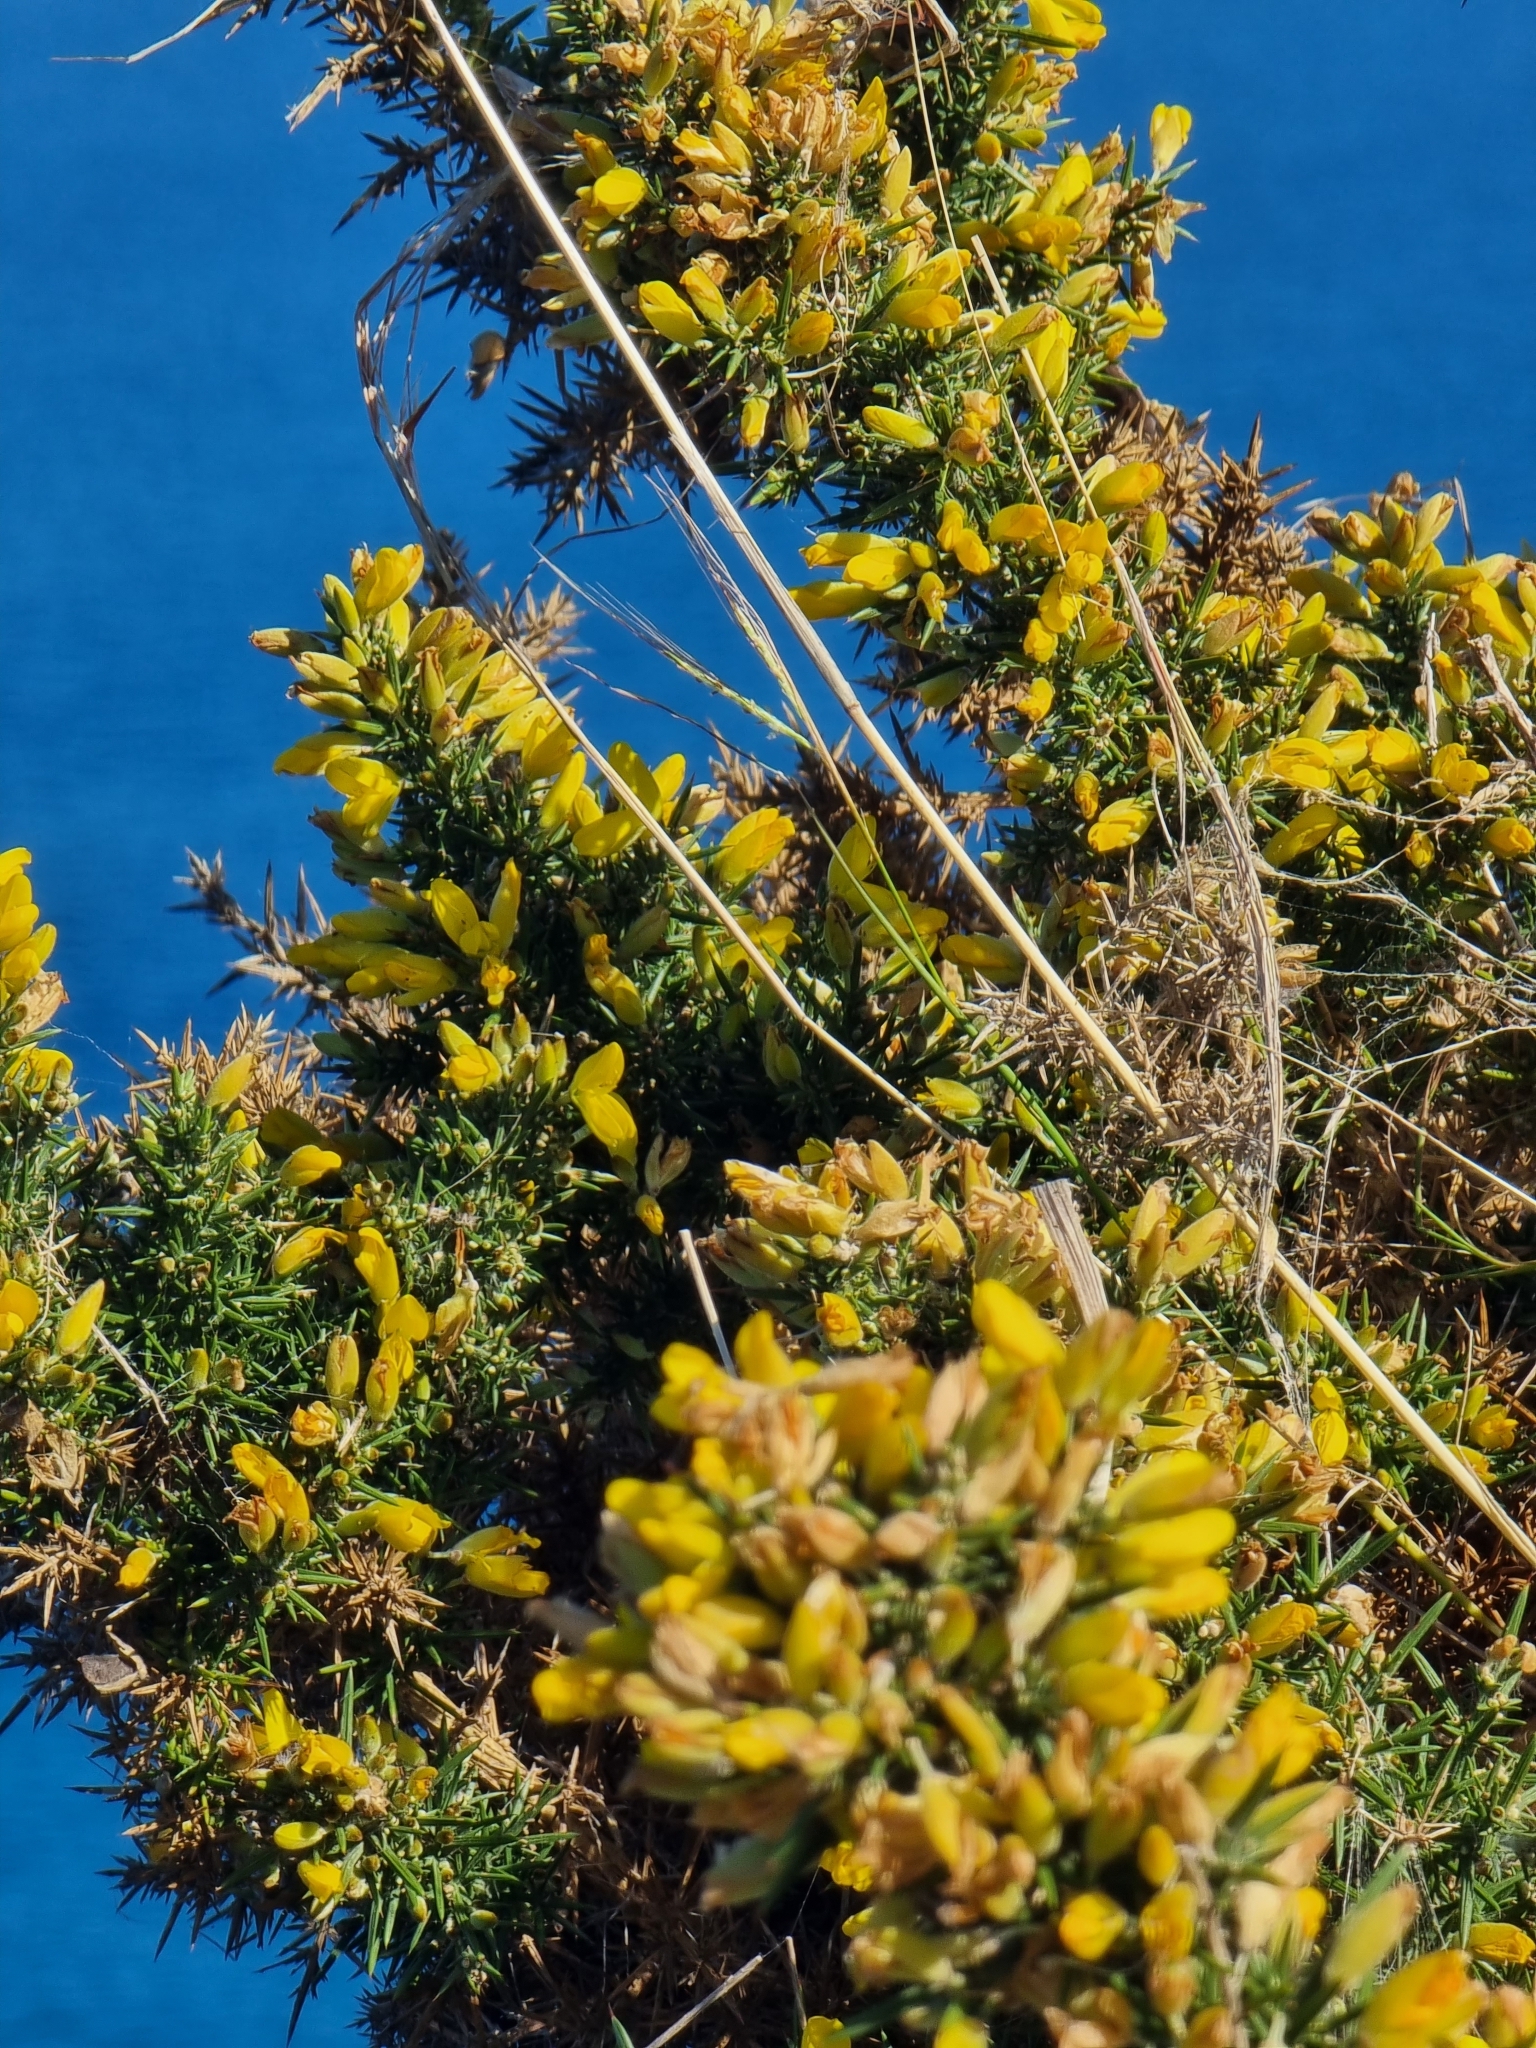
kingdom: Plantae
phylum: Tracheophyta
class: Magnoliopsida
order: Fabales
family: Fabaceae
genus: Ulex
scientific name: Ulex europaeus
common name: Common gorse
